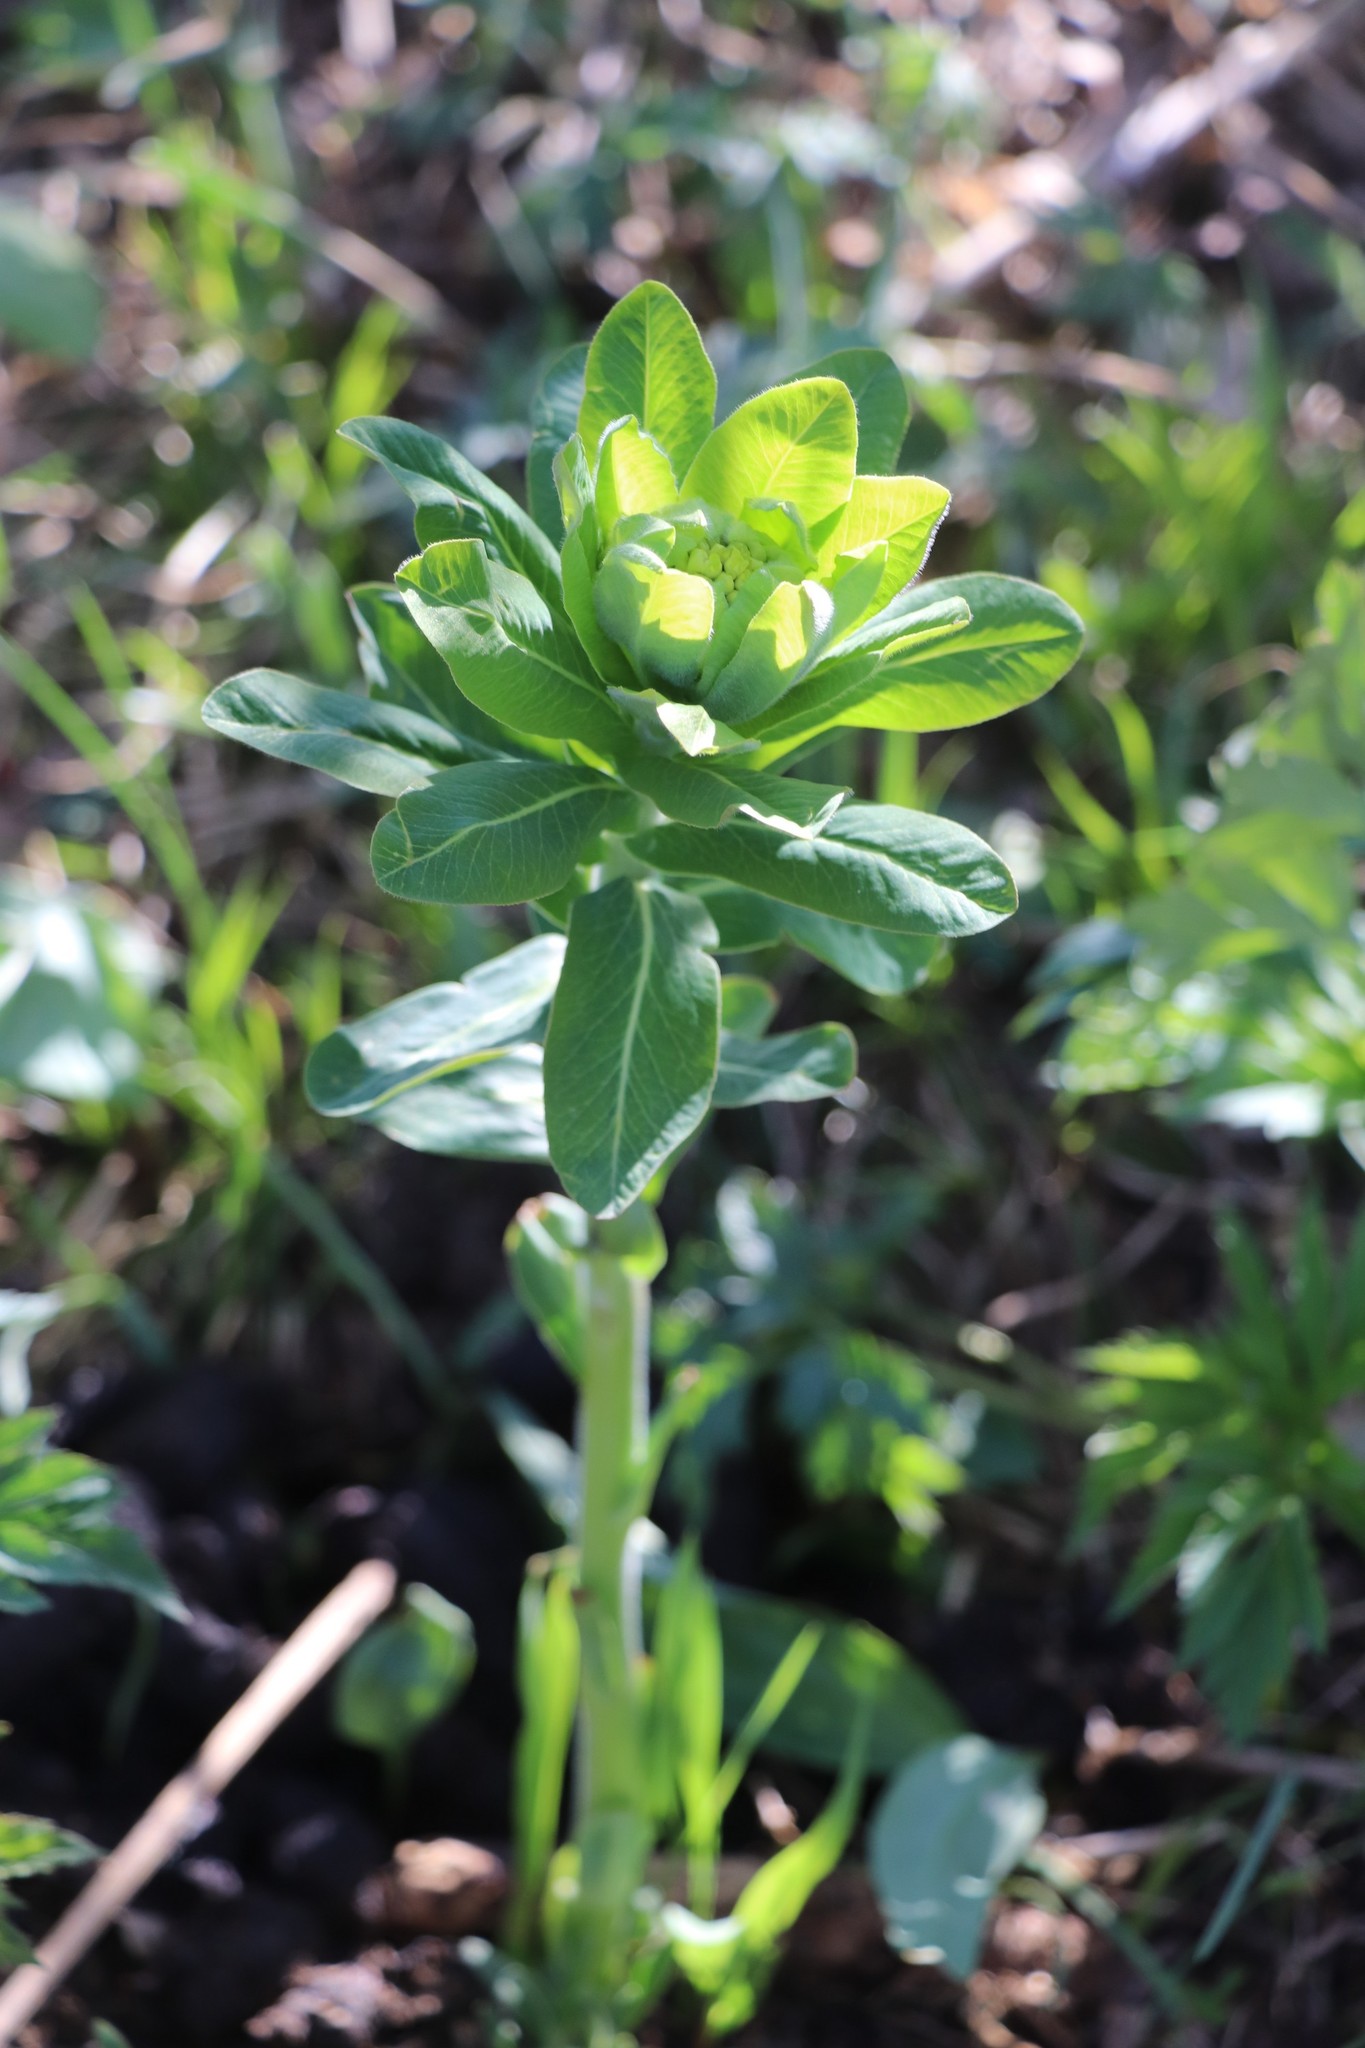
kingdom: Plantae
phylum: Tracheophyta
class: Magnoliopsida
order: Malpighiales
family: Euphorbiaceae
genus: Euphorbia
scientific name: Euphorbia pilosa
